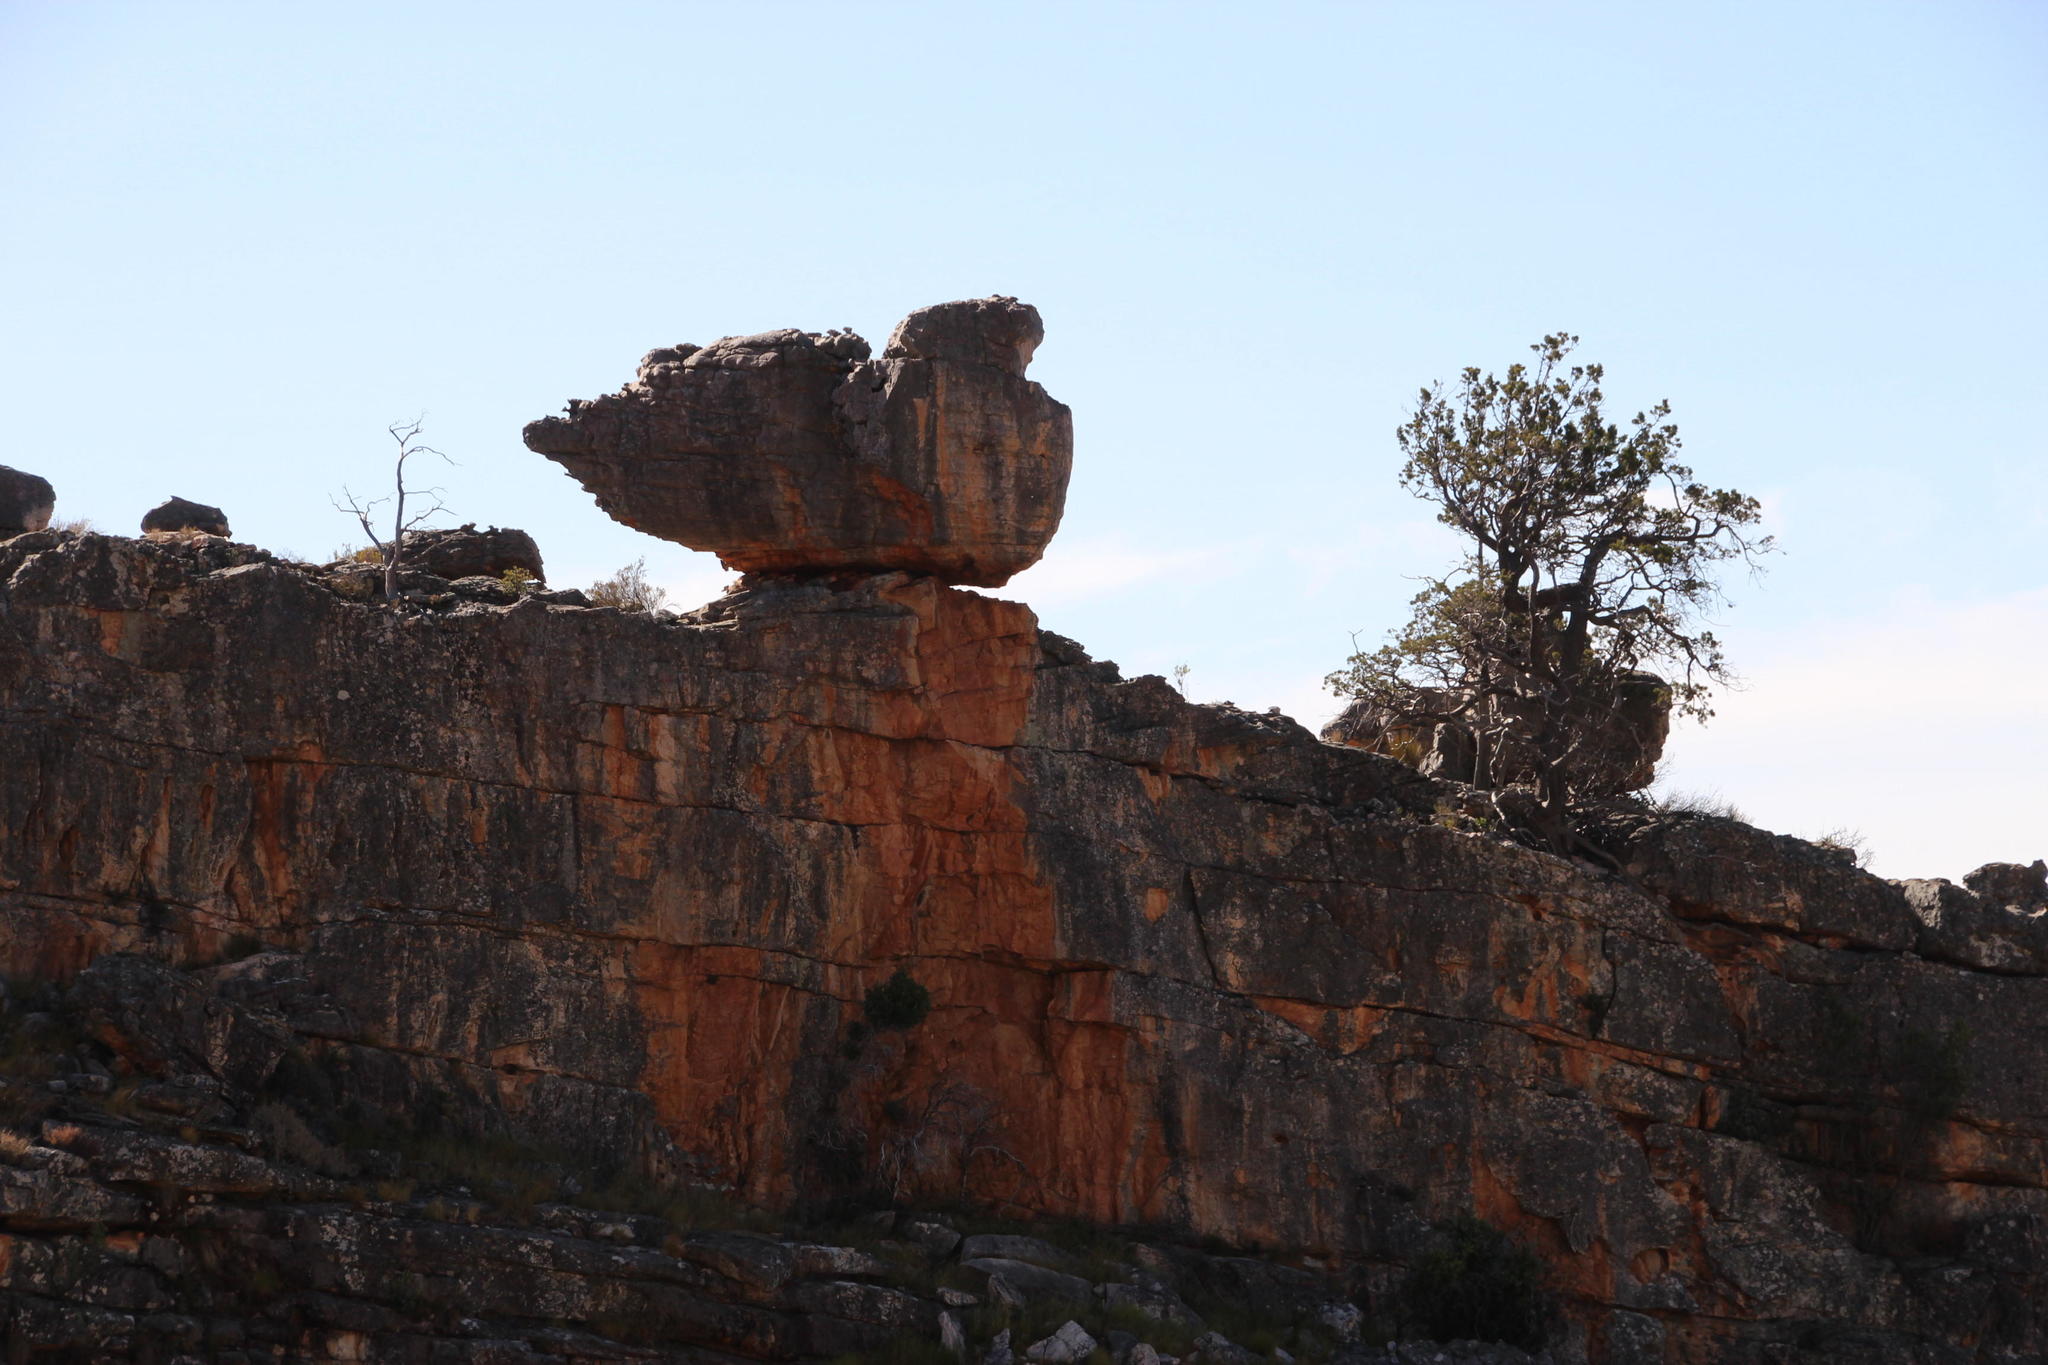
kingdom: Plantae
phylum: Tracheophyta
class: Pinopsida
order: Pinales
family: Cupressaceae
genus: Widdringtonia
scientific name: Widdringtonia nodiflora
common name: Cape cypress
